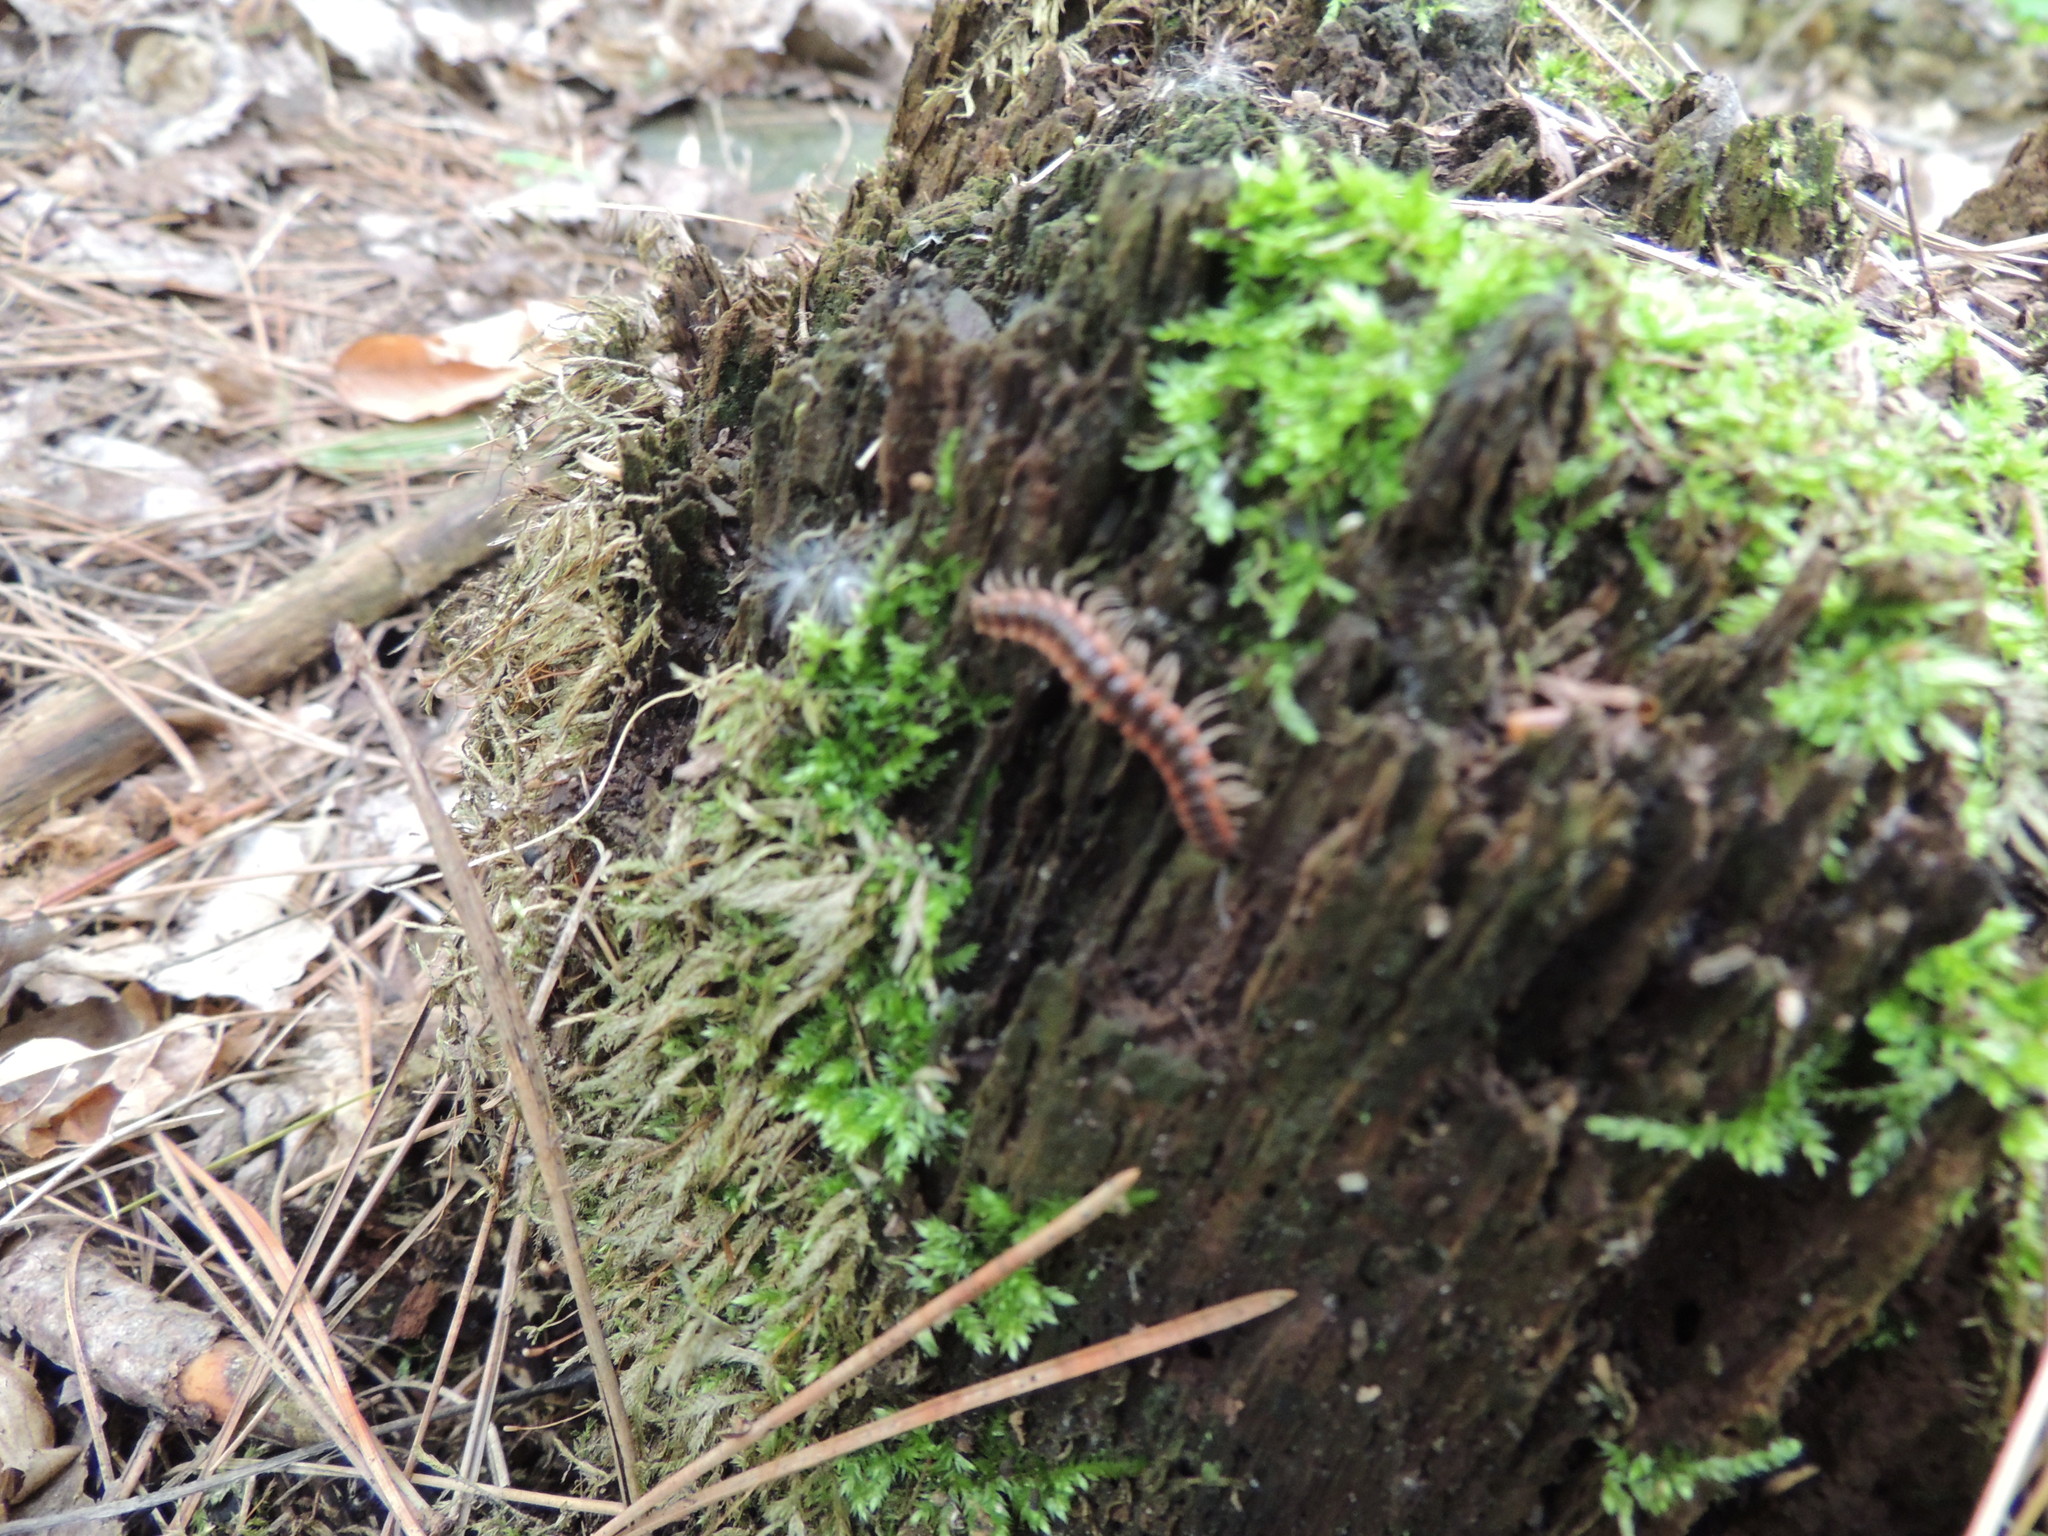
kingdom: Animalia
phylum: Arthropoda
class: Diplopoda
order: Polydesmida
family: Polydesmidae
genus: Pseudopolydesmus
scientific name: Pseudopolydesmus canadensis
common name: Canadian flat-back millipede
